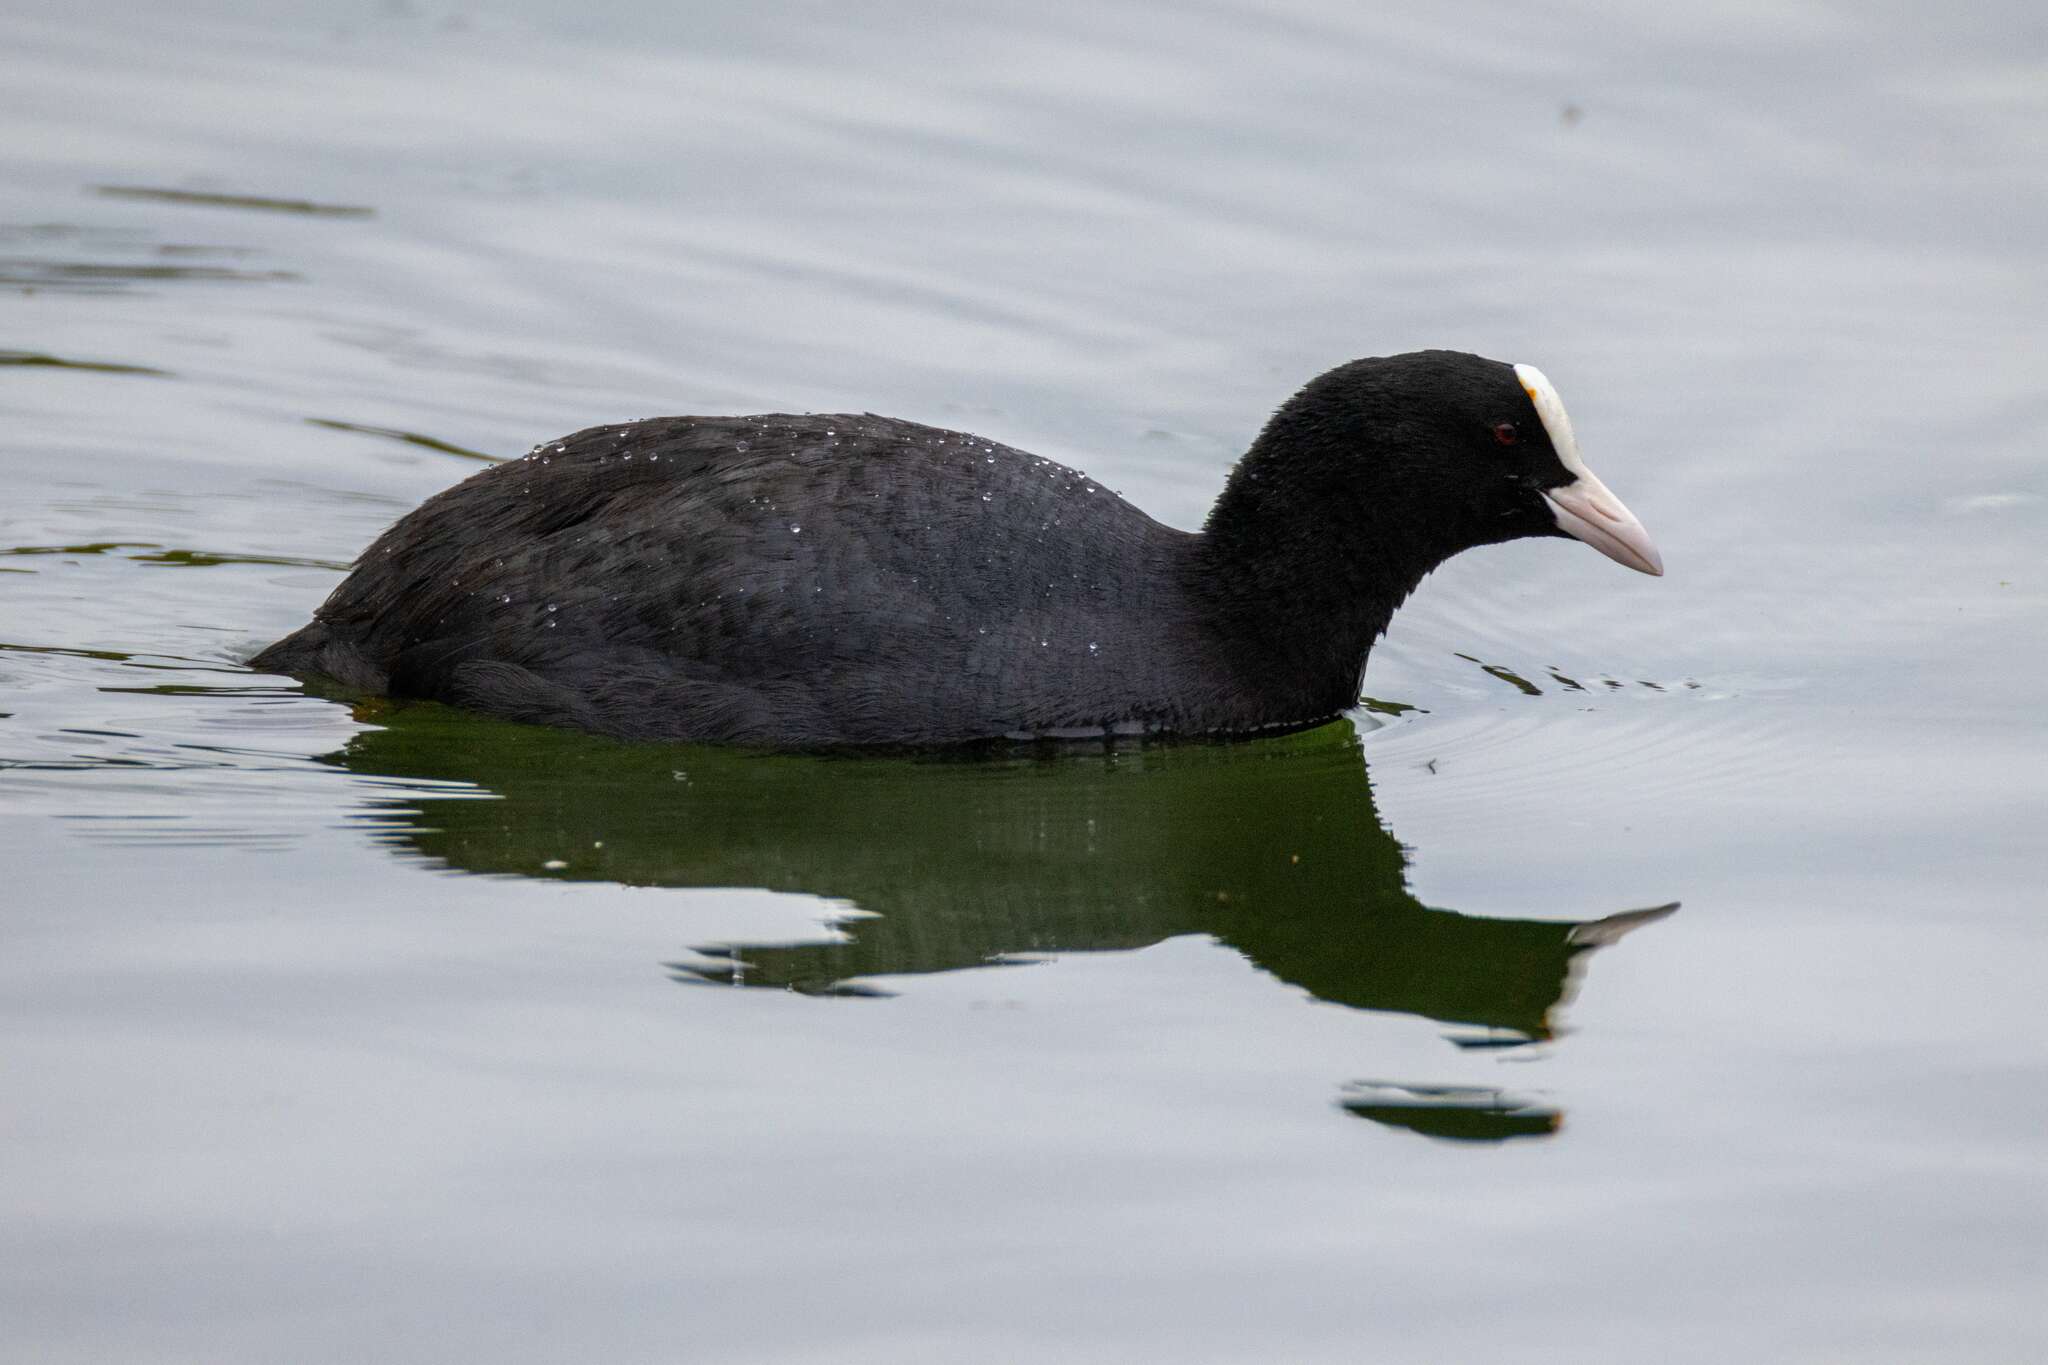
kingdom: Animalia
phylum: Chordata
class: Aves
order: Gruiformes
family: Rallidae
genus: Fulica
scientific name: Fulica atra
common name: Eurasian coot
